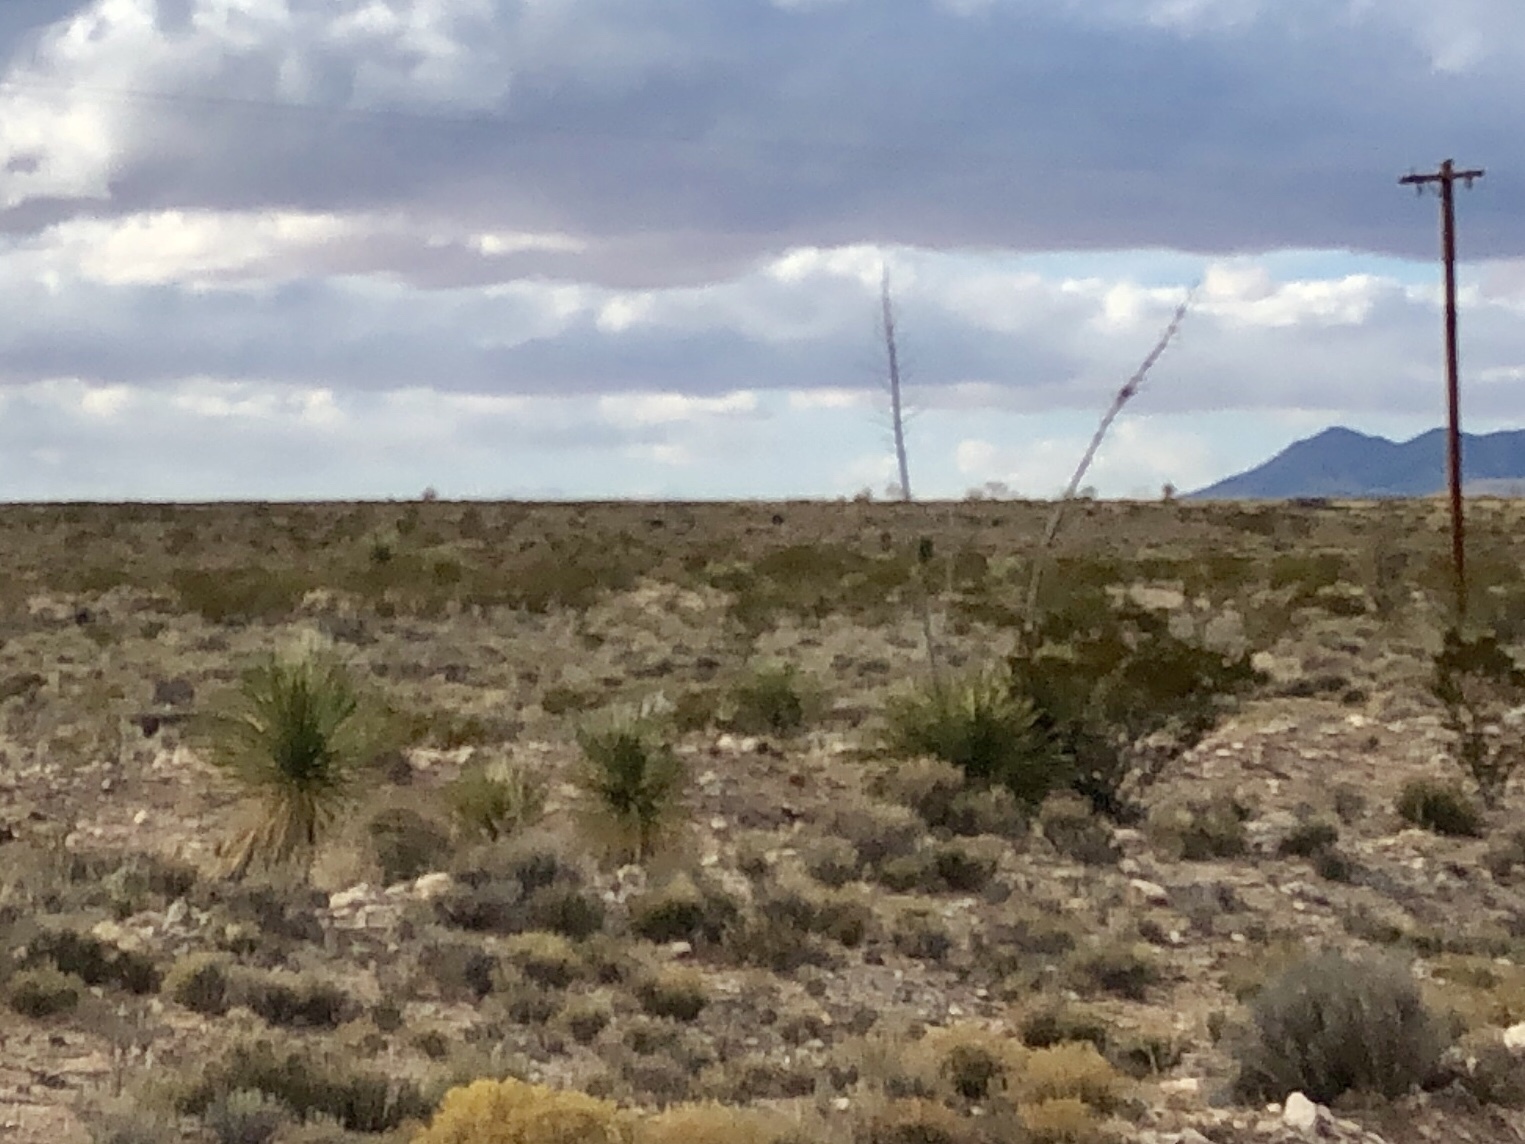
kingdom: Plantae
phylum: Tracheophyta
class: Liliopsida
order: Asparagales
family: Asparagaceae
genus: Yucca
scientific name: Yucca elata
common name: Palmella
